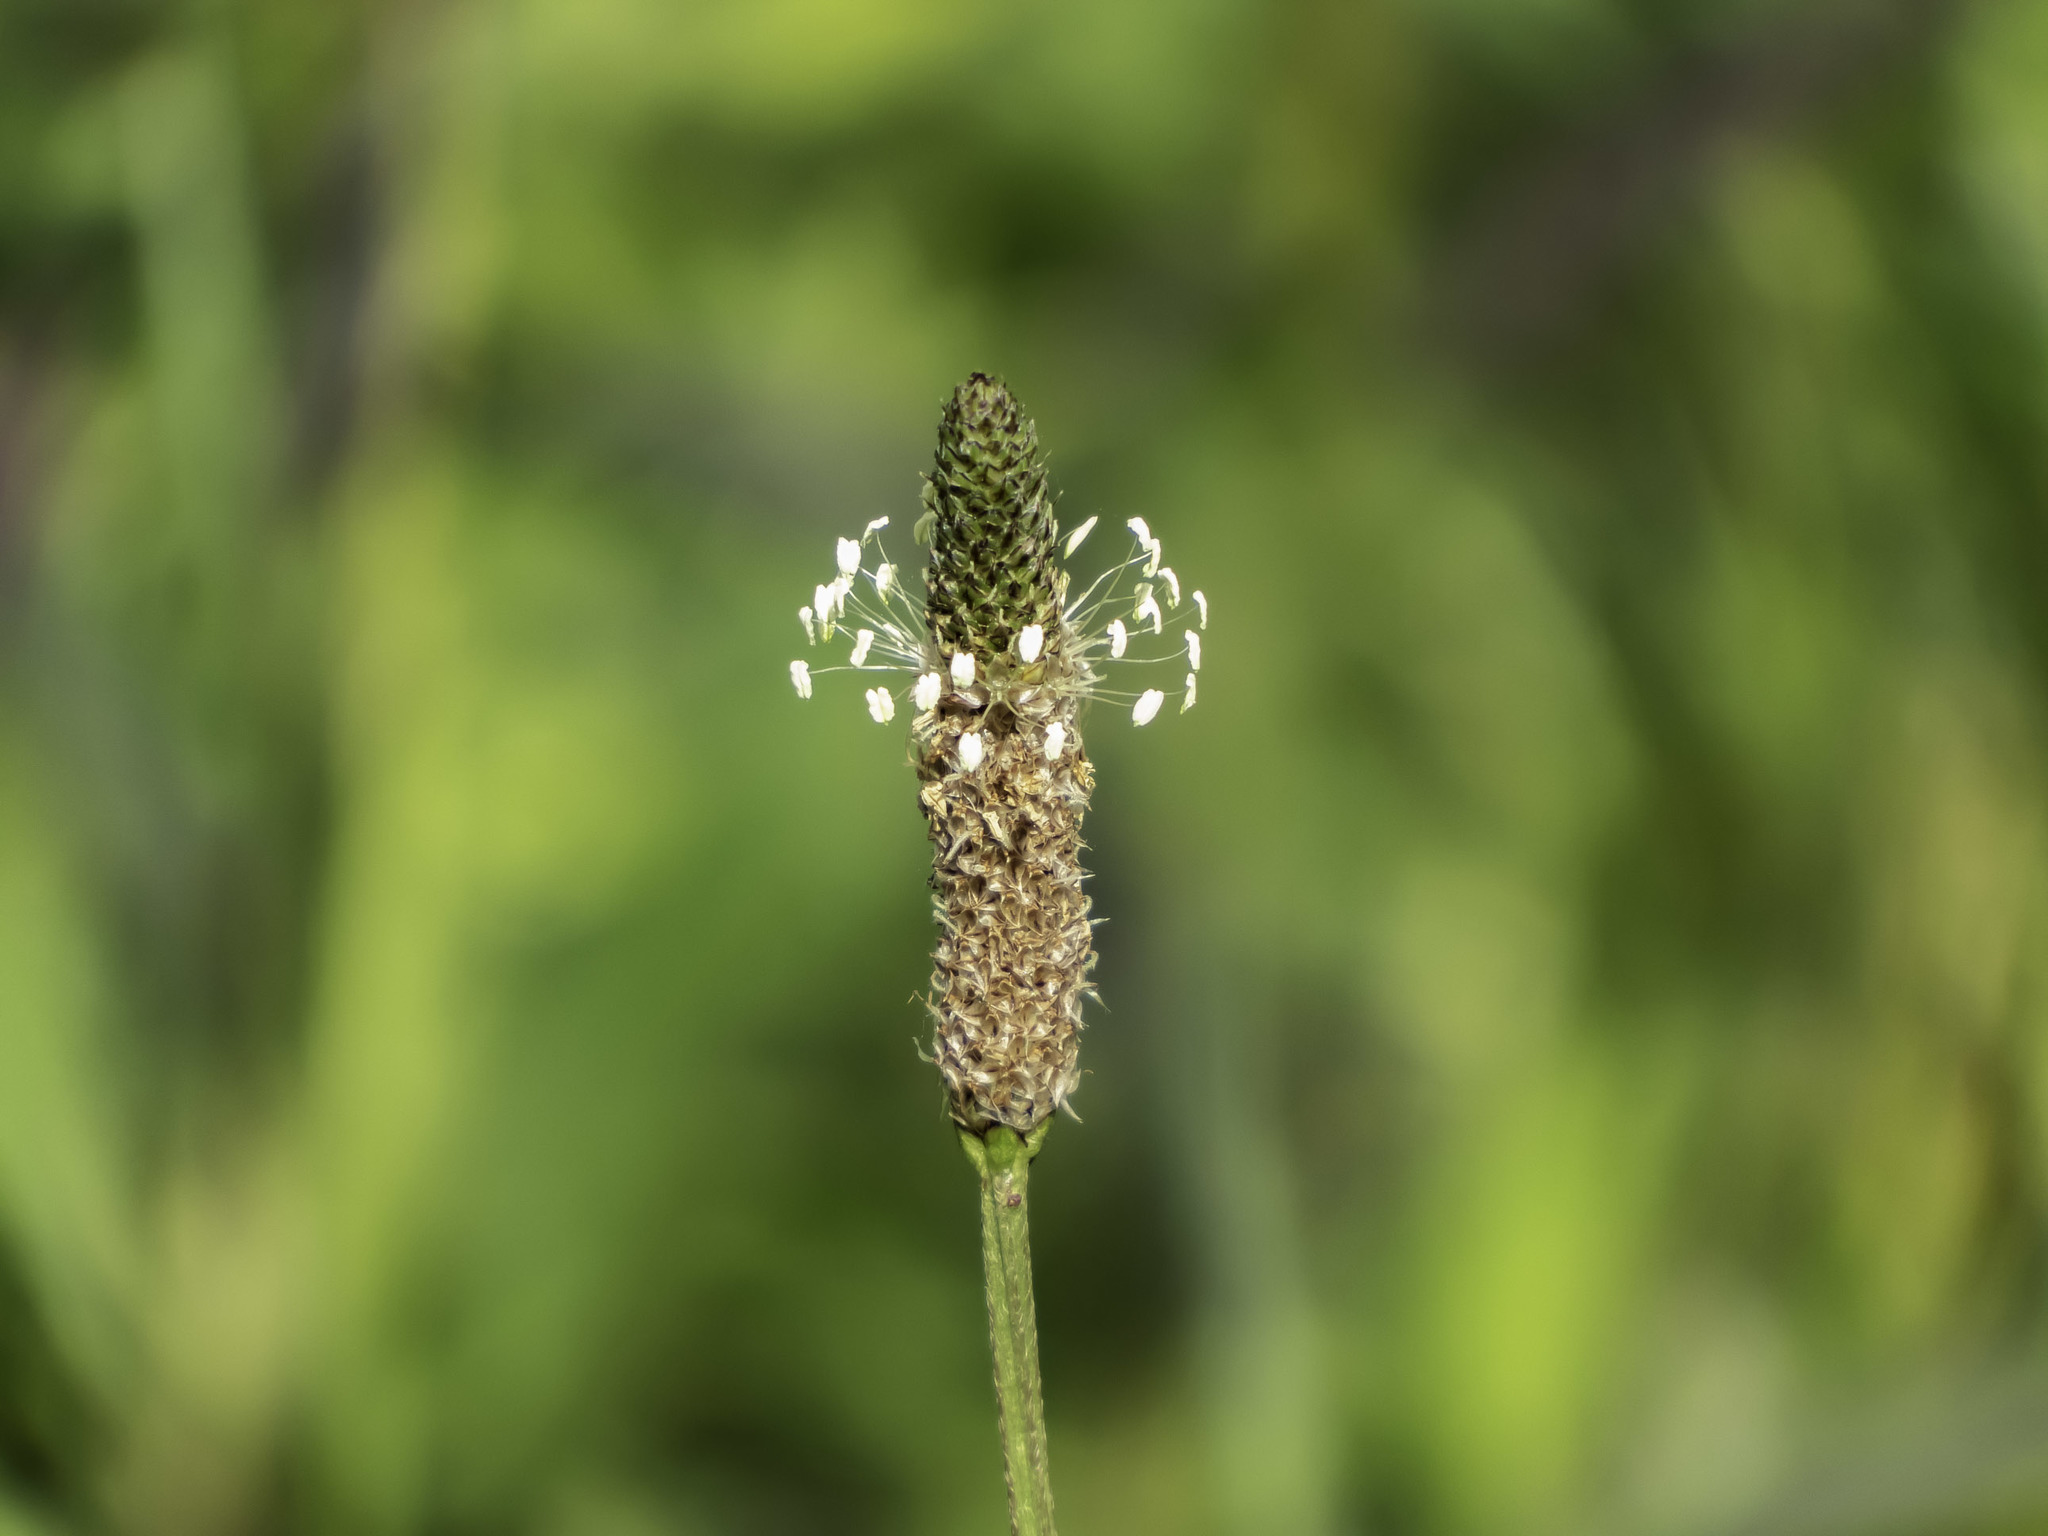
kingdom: Plantae
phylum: Tracheophyta
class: Magnoliopsida
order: Lamiales
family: Plantaginaceae
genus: Plantago
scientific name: Plantago lanceolata
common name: Ribwort plantain
